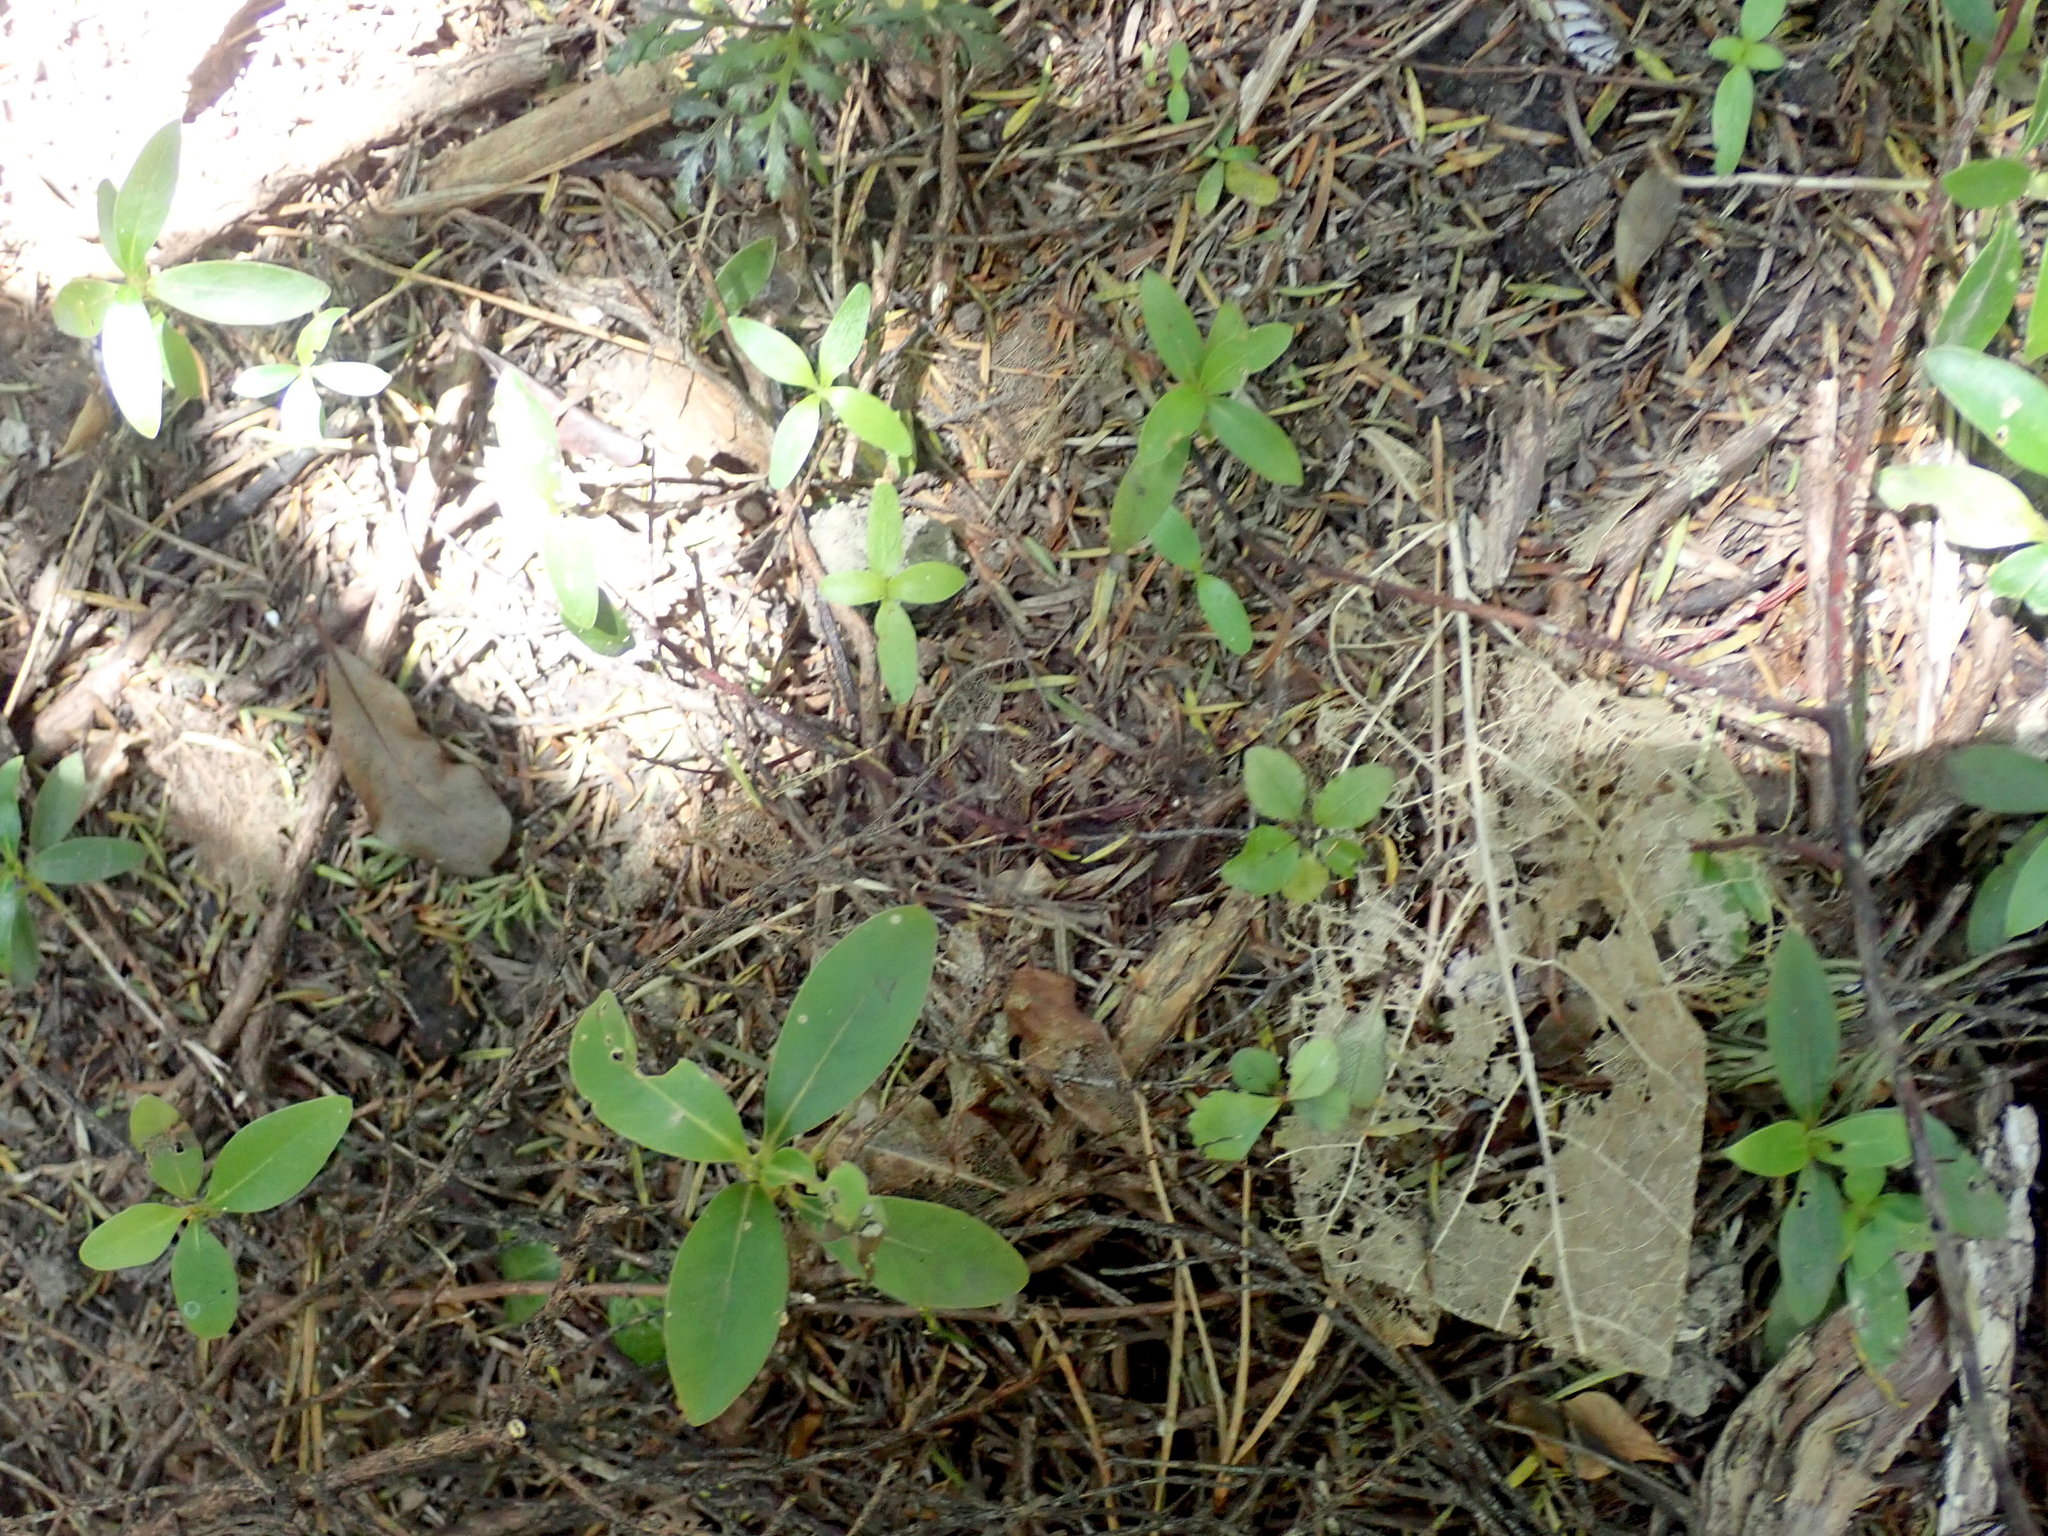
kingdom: Plantae
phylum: Tracheophyta
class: Pinopsida
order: Pinales
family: Phyllocladaceae
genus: Phyllocladus
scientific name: Phyllocladus trichomanoides
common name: Celery pine
